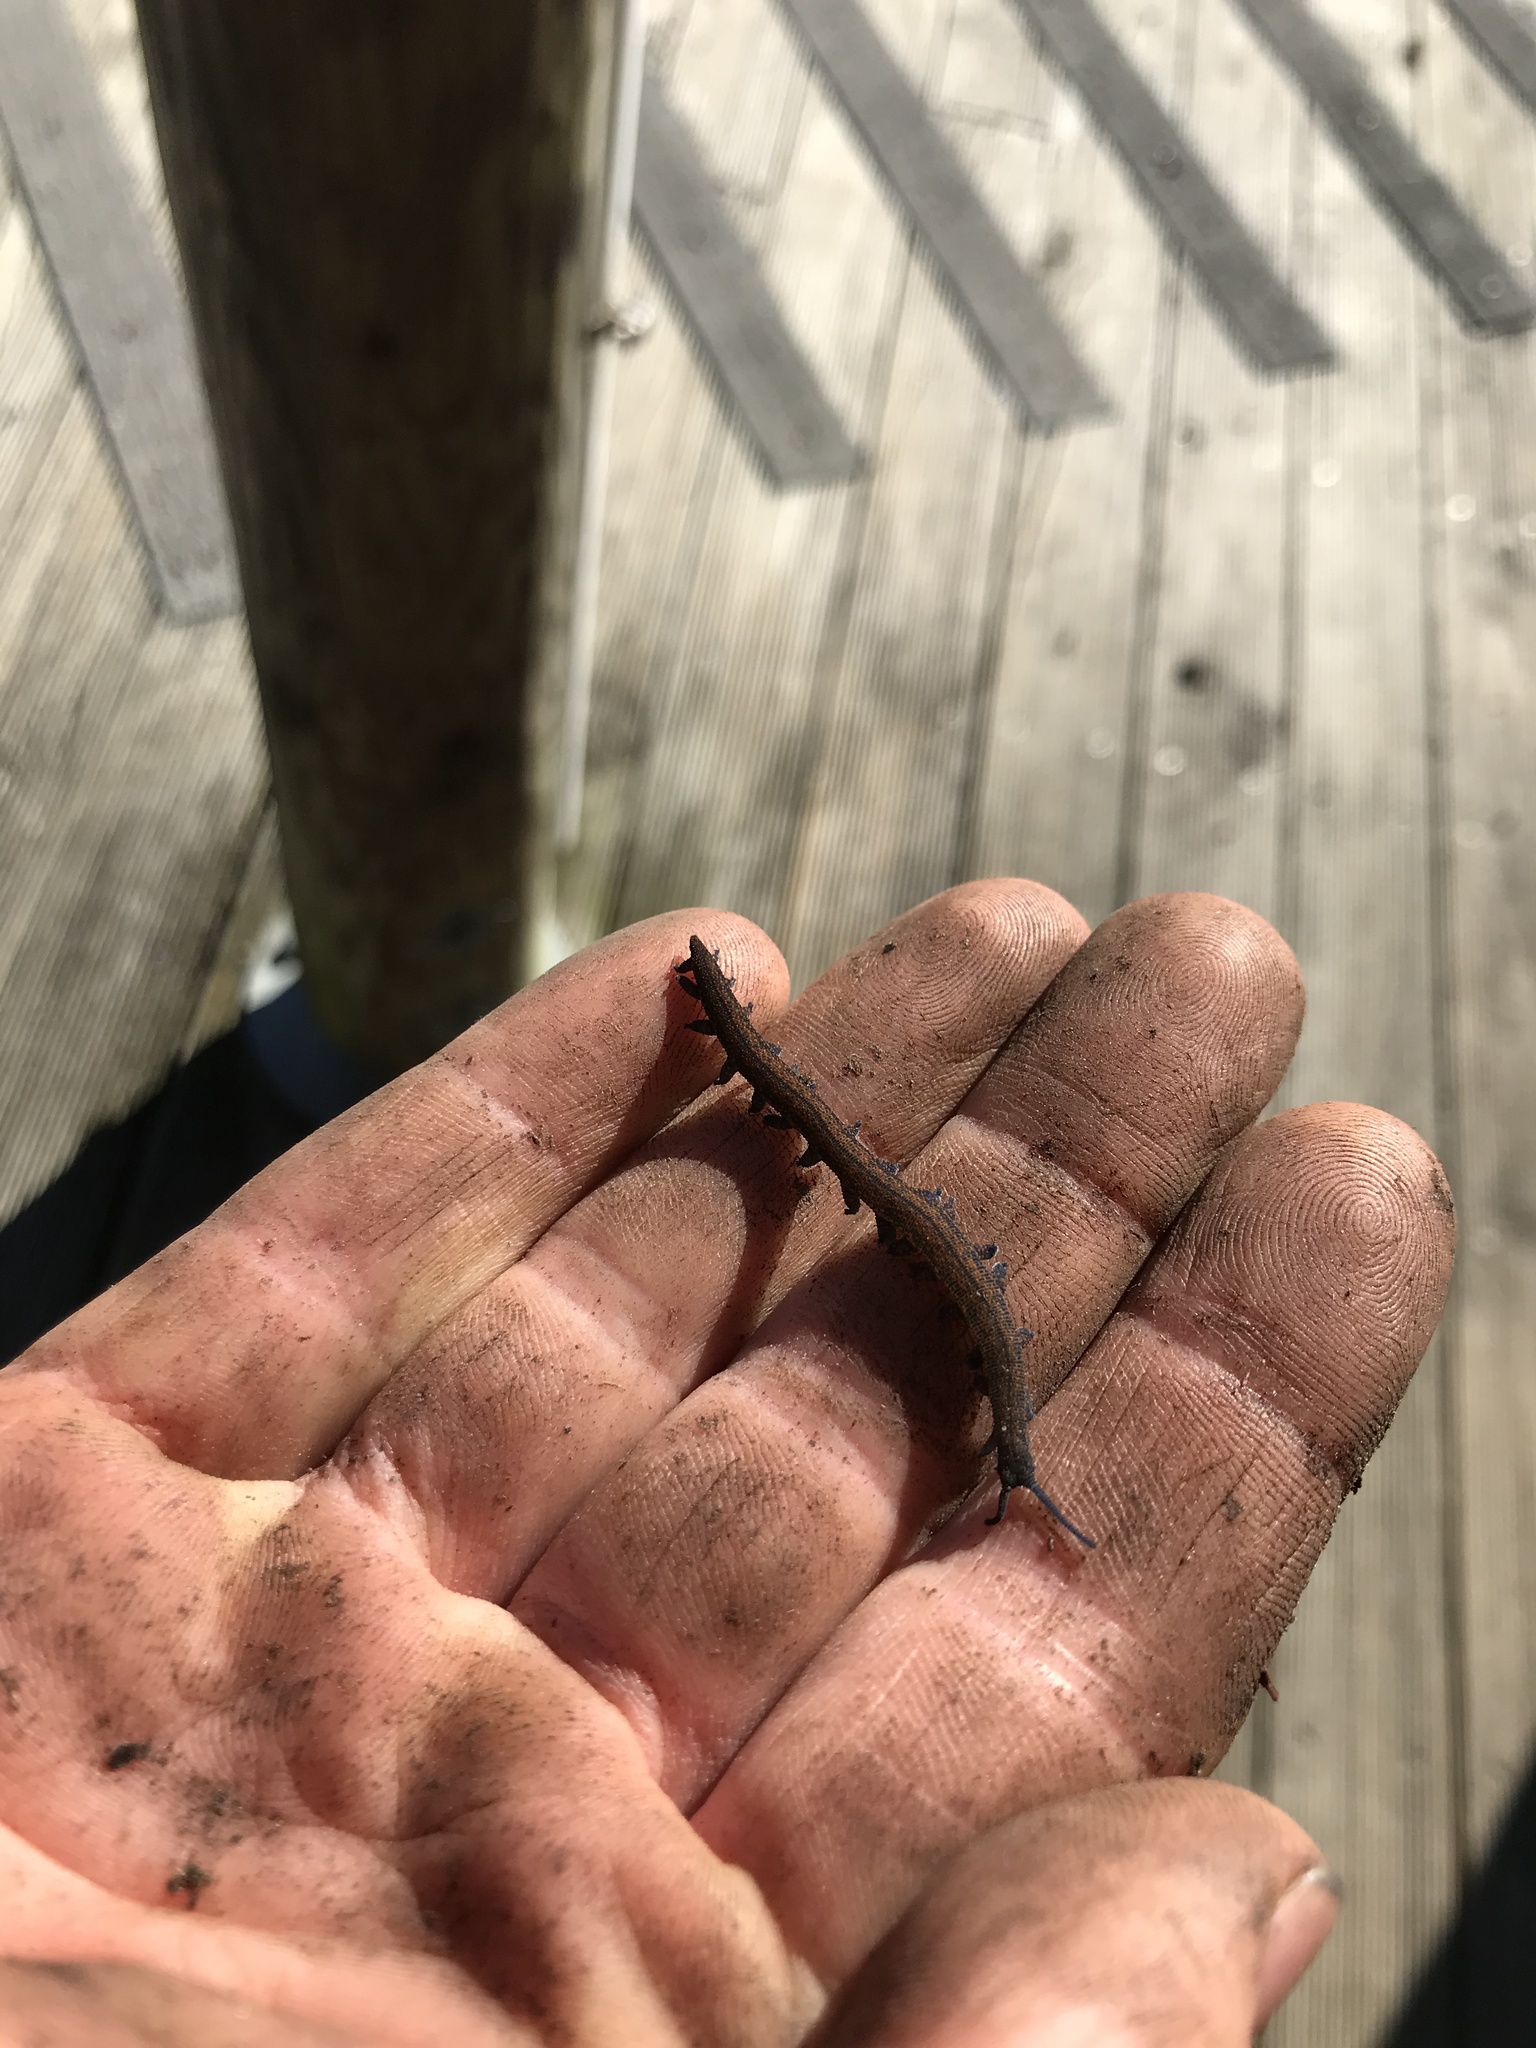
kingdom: Animalia
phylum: Onychophora
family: Peripatopsidae
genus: Peripatoides
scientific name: Peripatoides novaezealandiae
